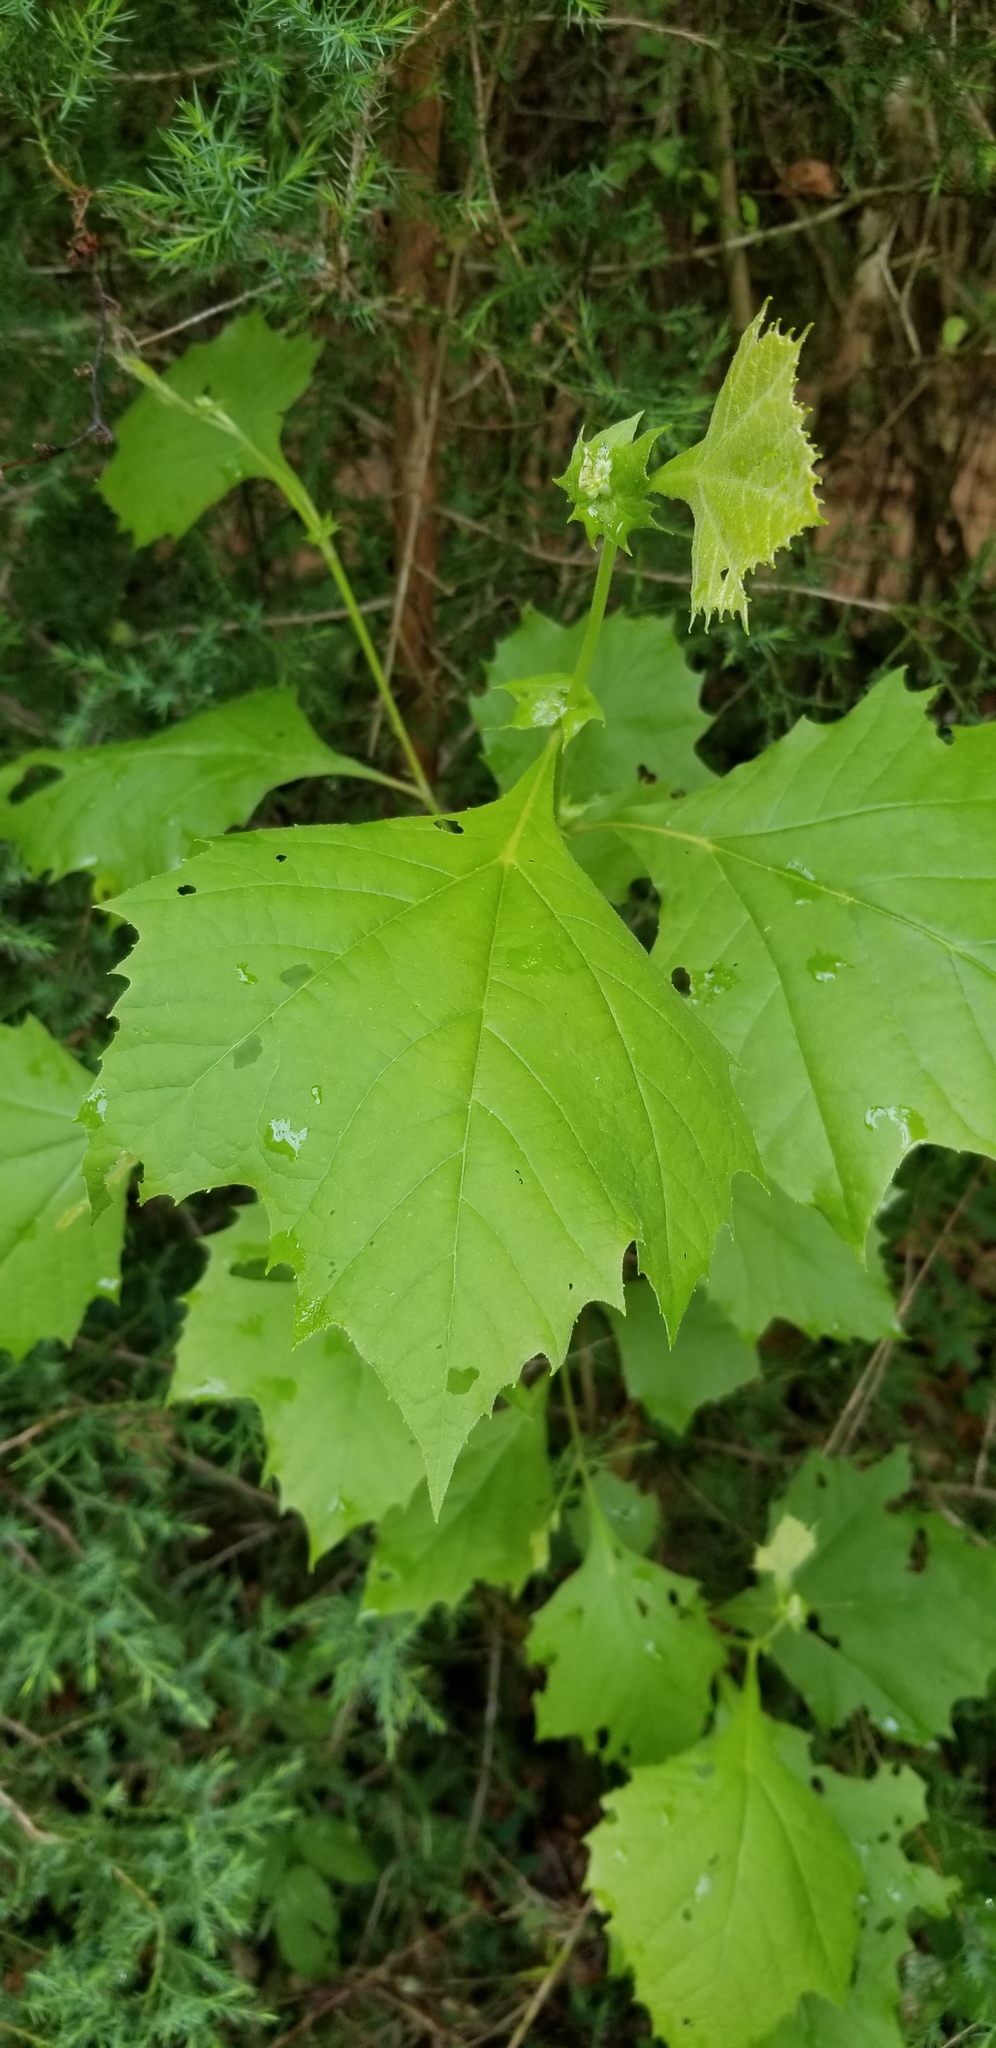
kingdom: Plantae
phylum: Tracheophyta
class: Magnoliopsida
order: Proteales
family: Platanaceae
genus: Platanus
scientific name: Platanus occidentalis
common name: American sycamore
